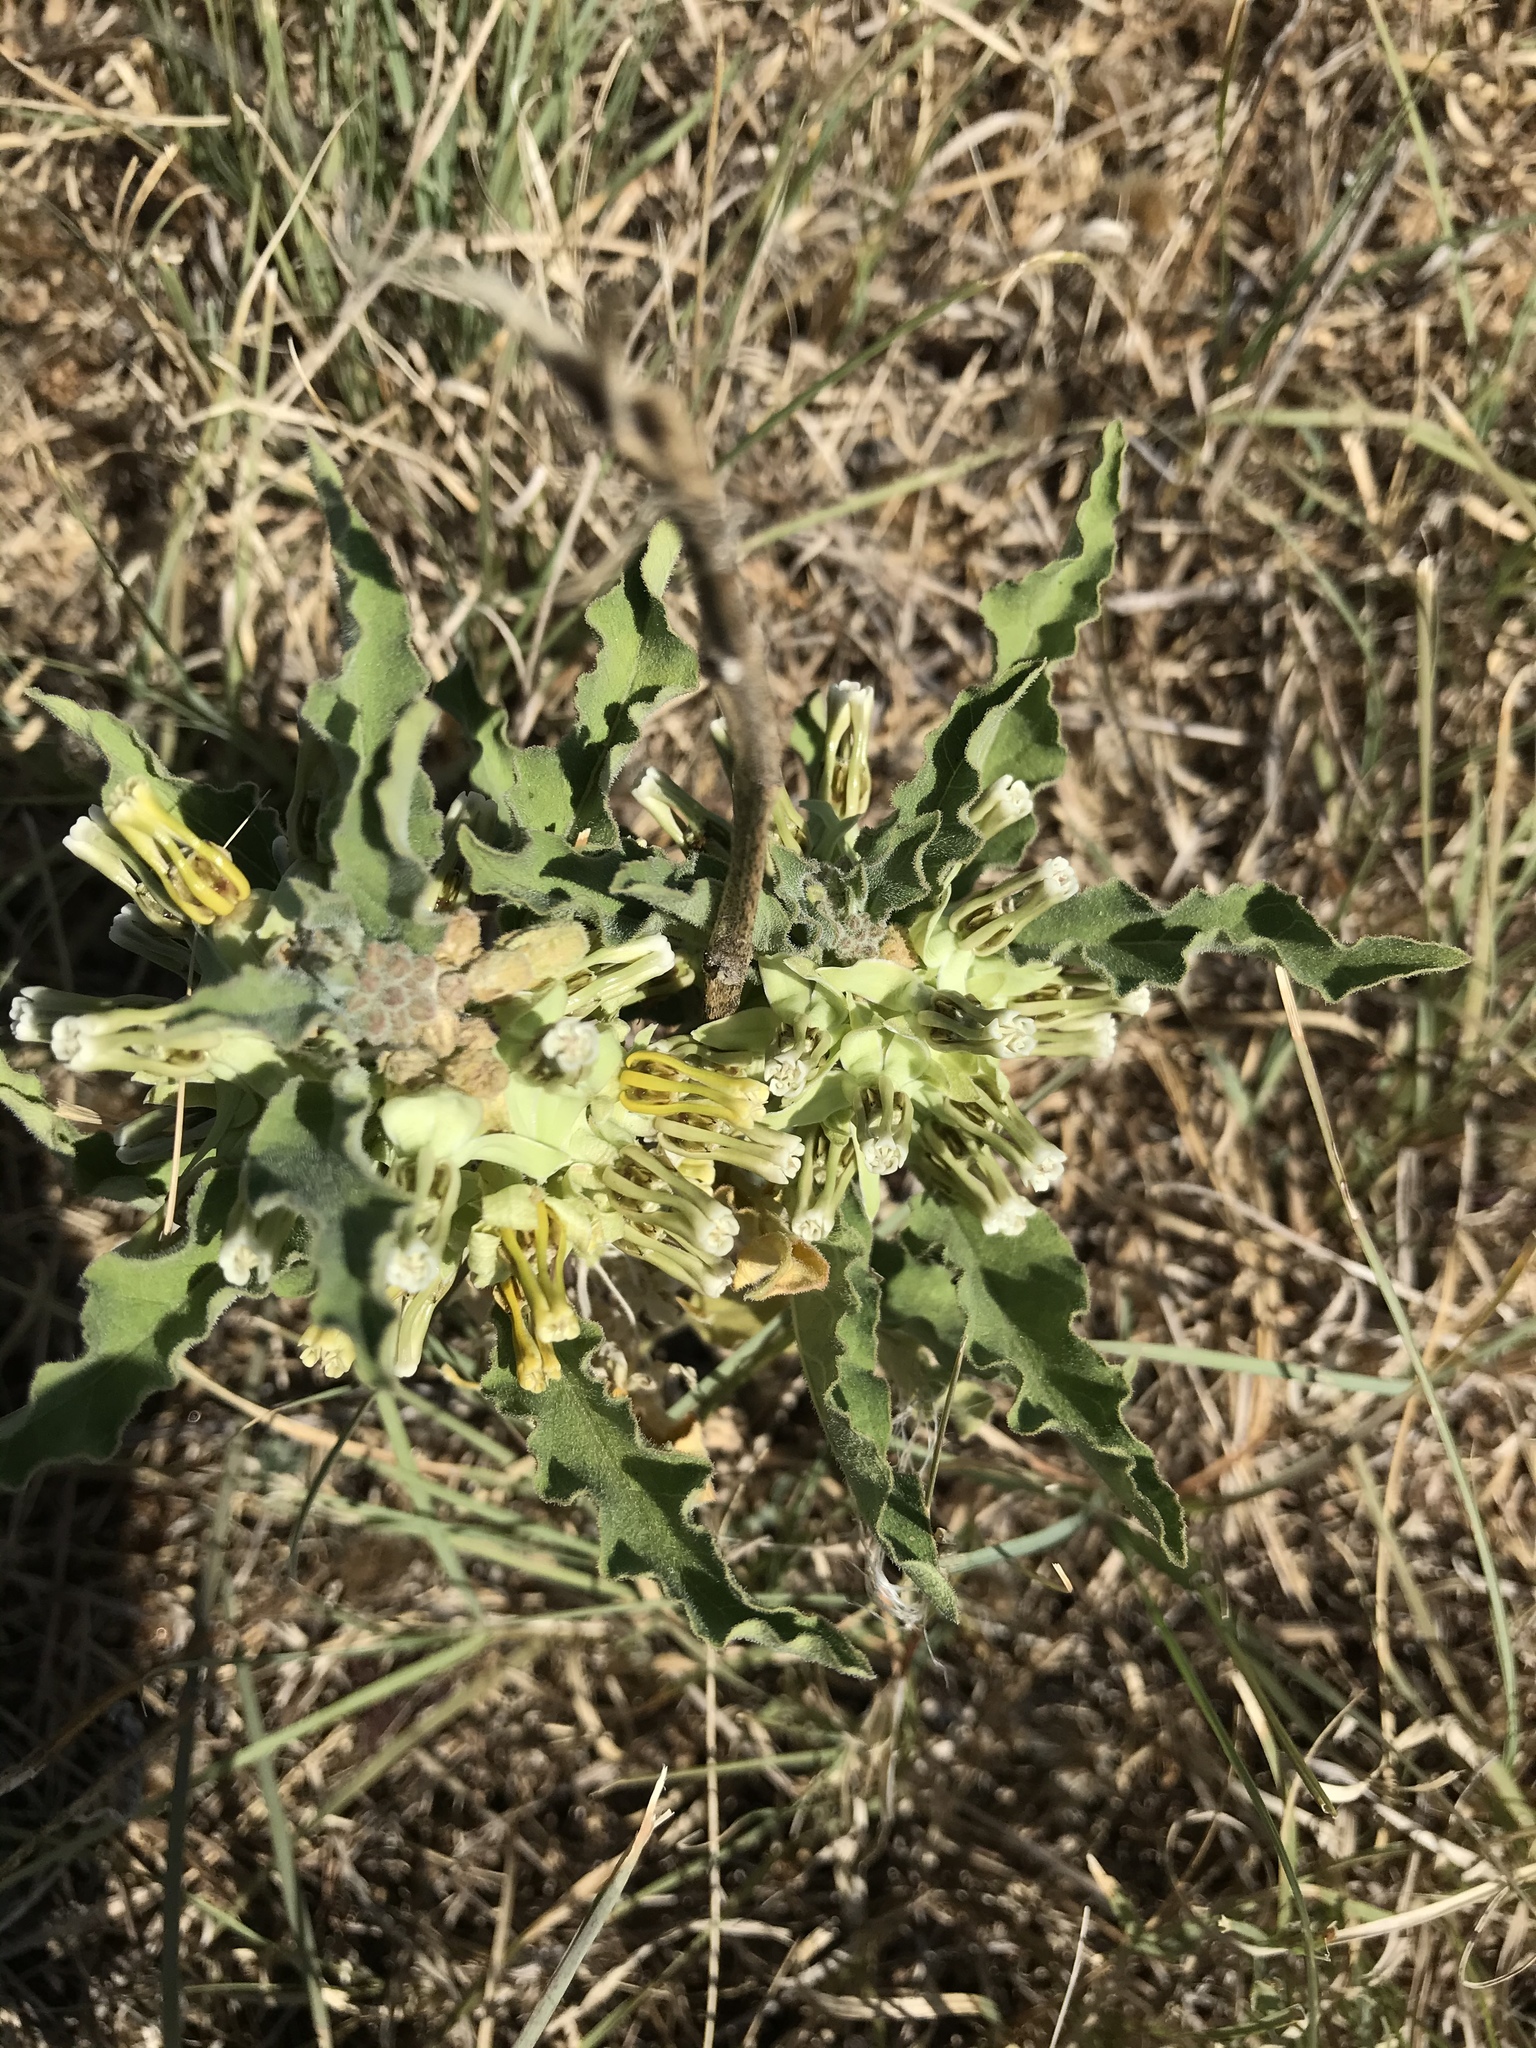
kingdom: Plantae
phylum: Tracheophyta
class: Magnoliopsida
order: Gentianales
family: Apocynaceae
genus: Asclepias
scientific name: Asclepias oenotheroides
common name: Zizotes milkweed
